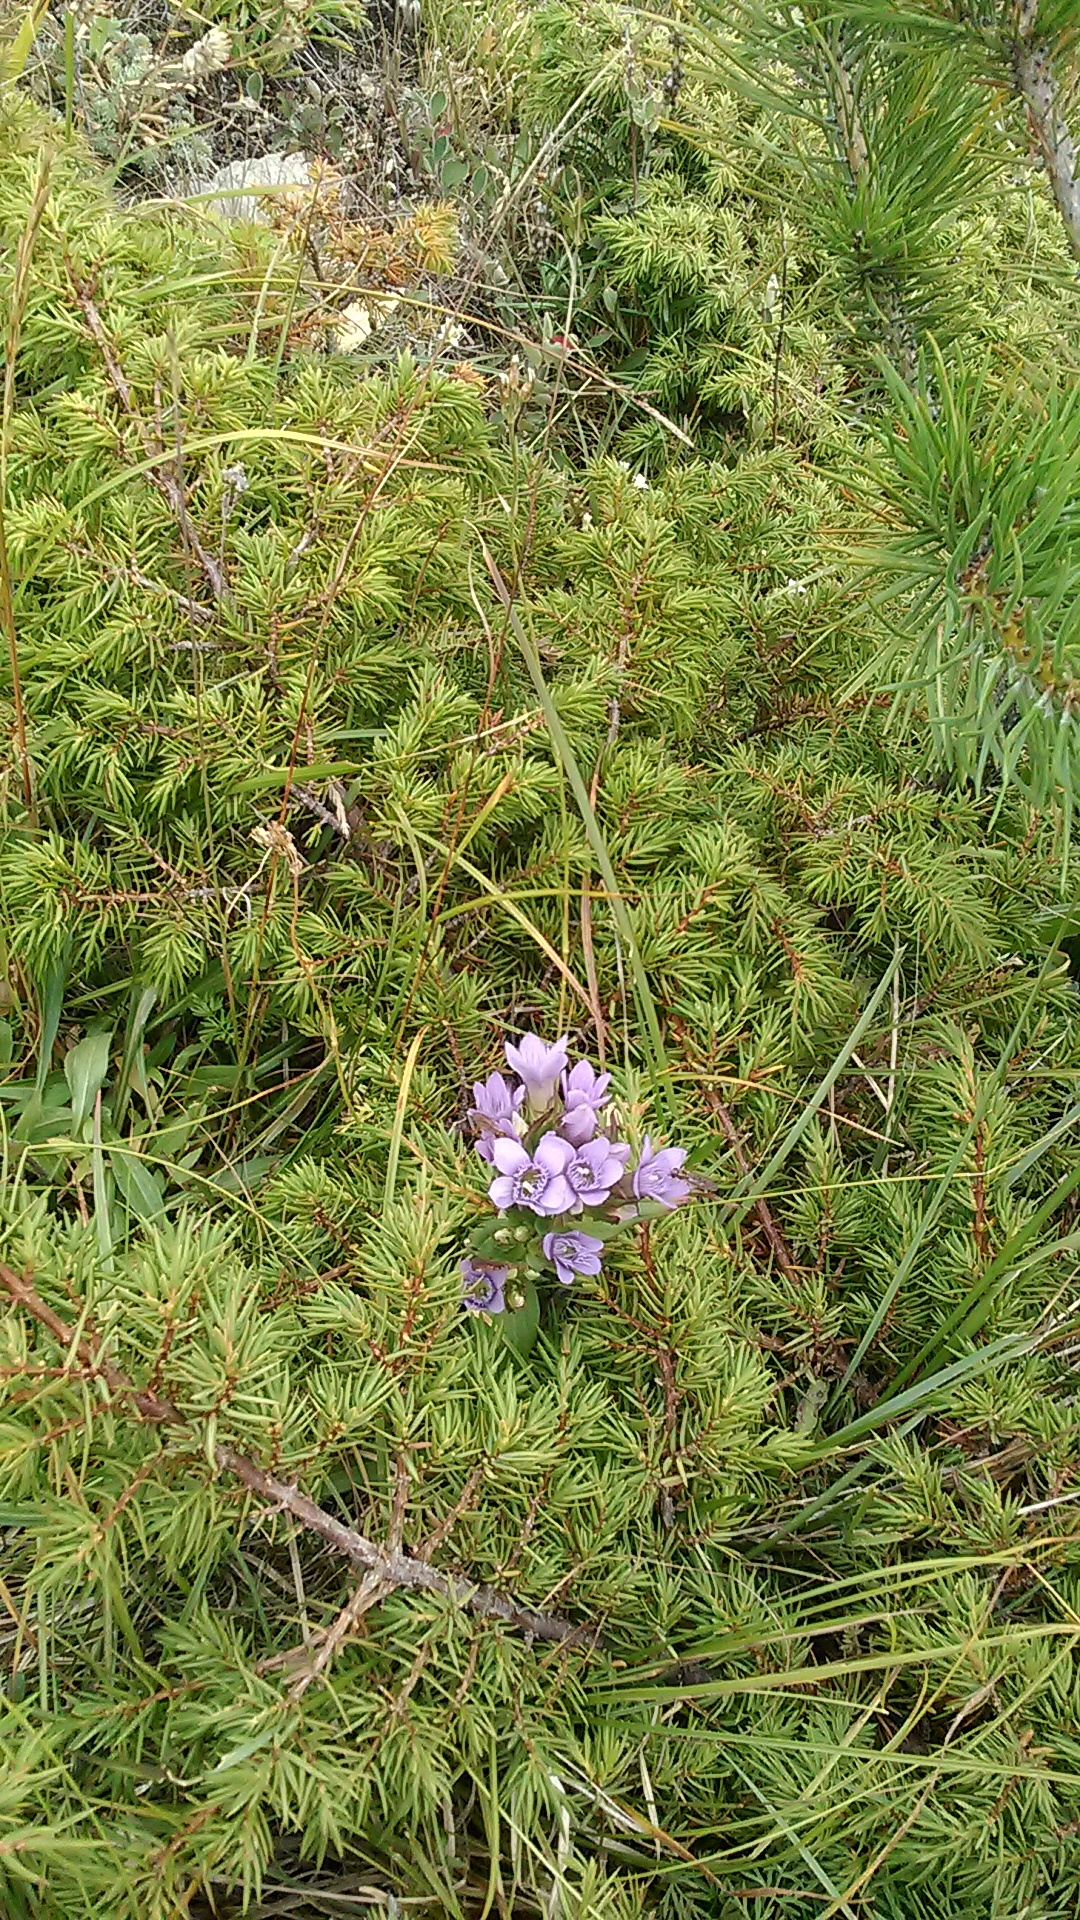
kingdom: Plantae
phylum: Tracheophyta
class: Magnoliopsida
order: Gentianales
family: Gentianaceae
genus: Gentianella
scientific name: Gentianella biebersteinii
